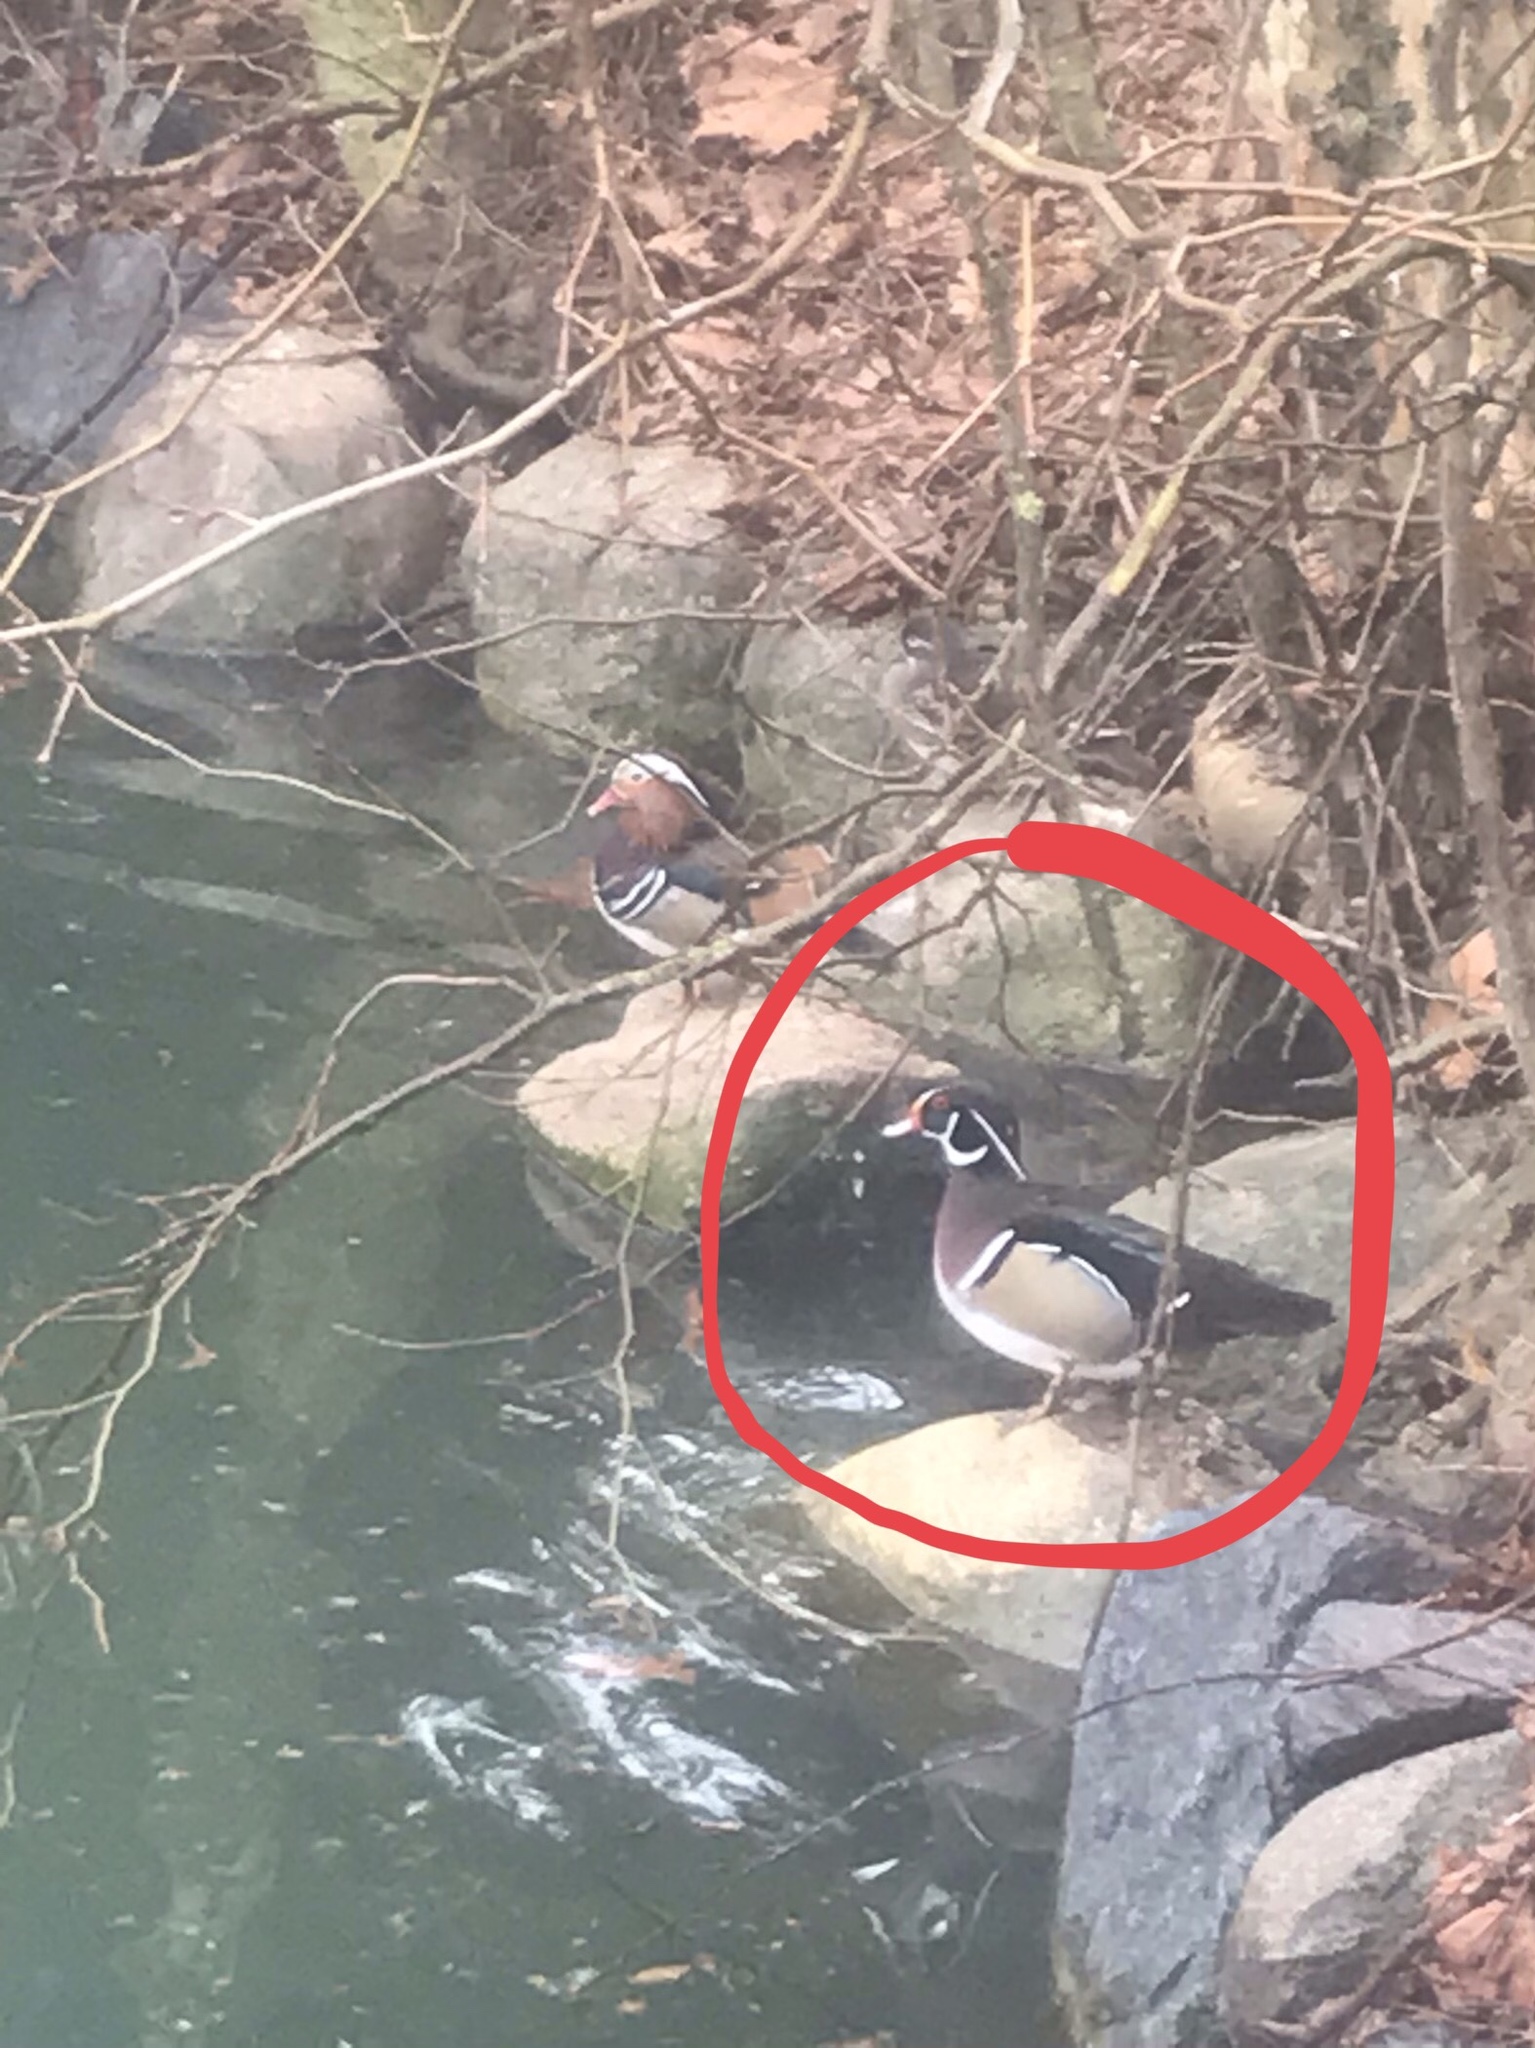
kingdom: Animalia
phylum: Chordata
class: Aves
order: Anseriformes
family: Anatidae
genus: Aix
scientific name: Aix sponsa
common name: Wood duck
